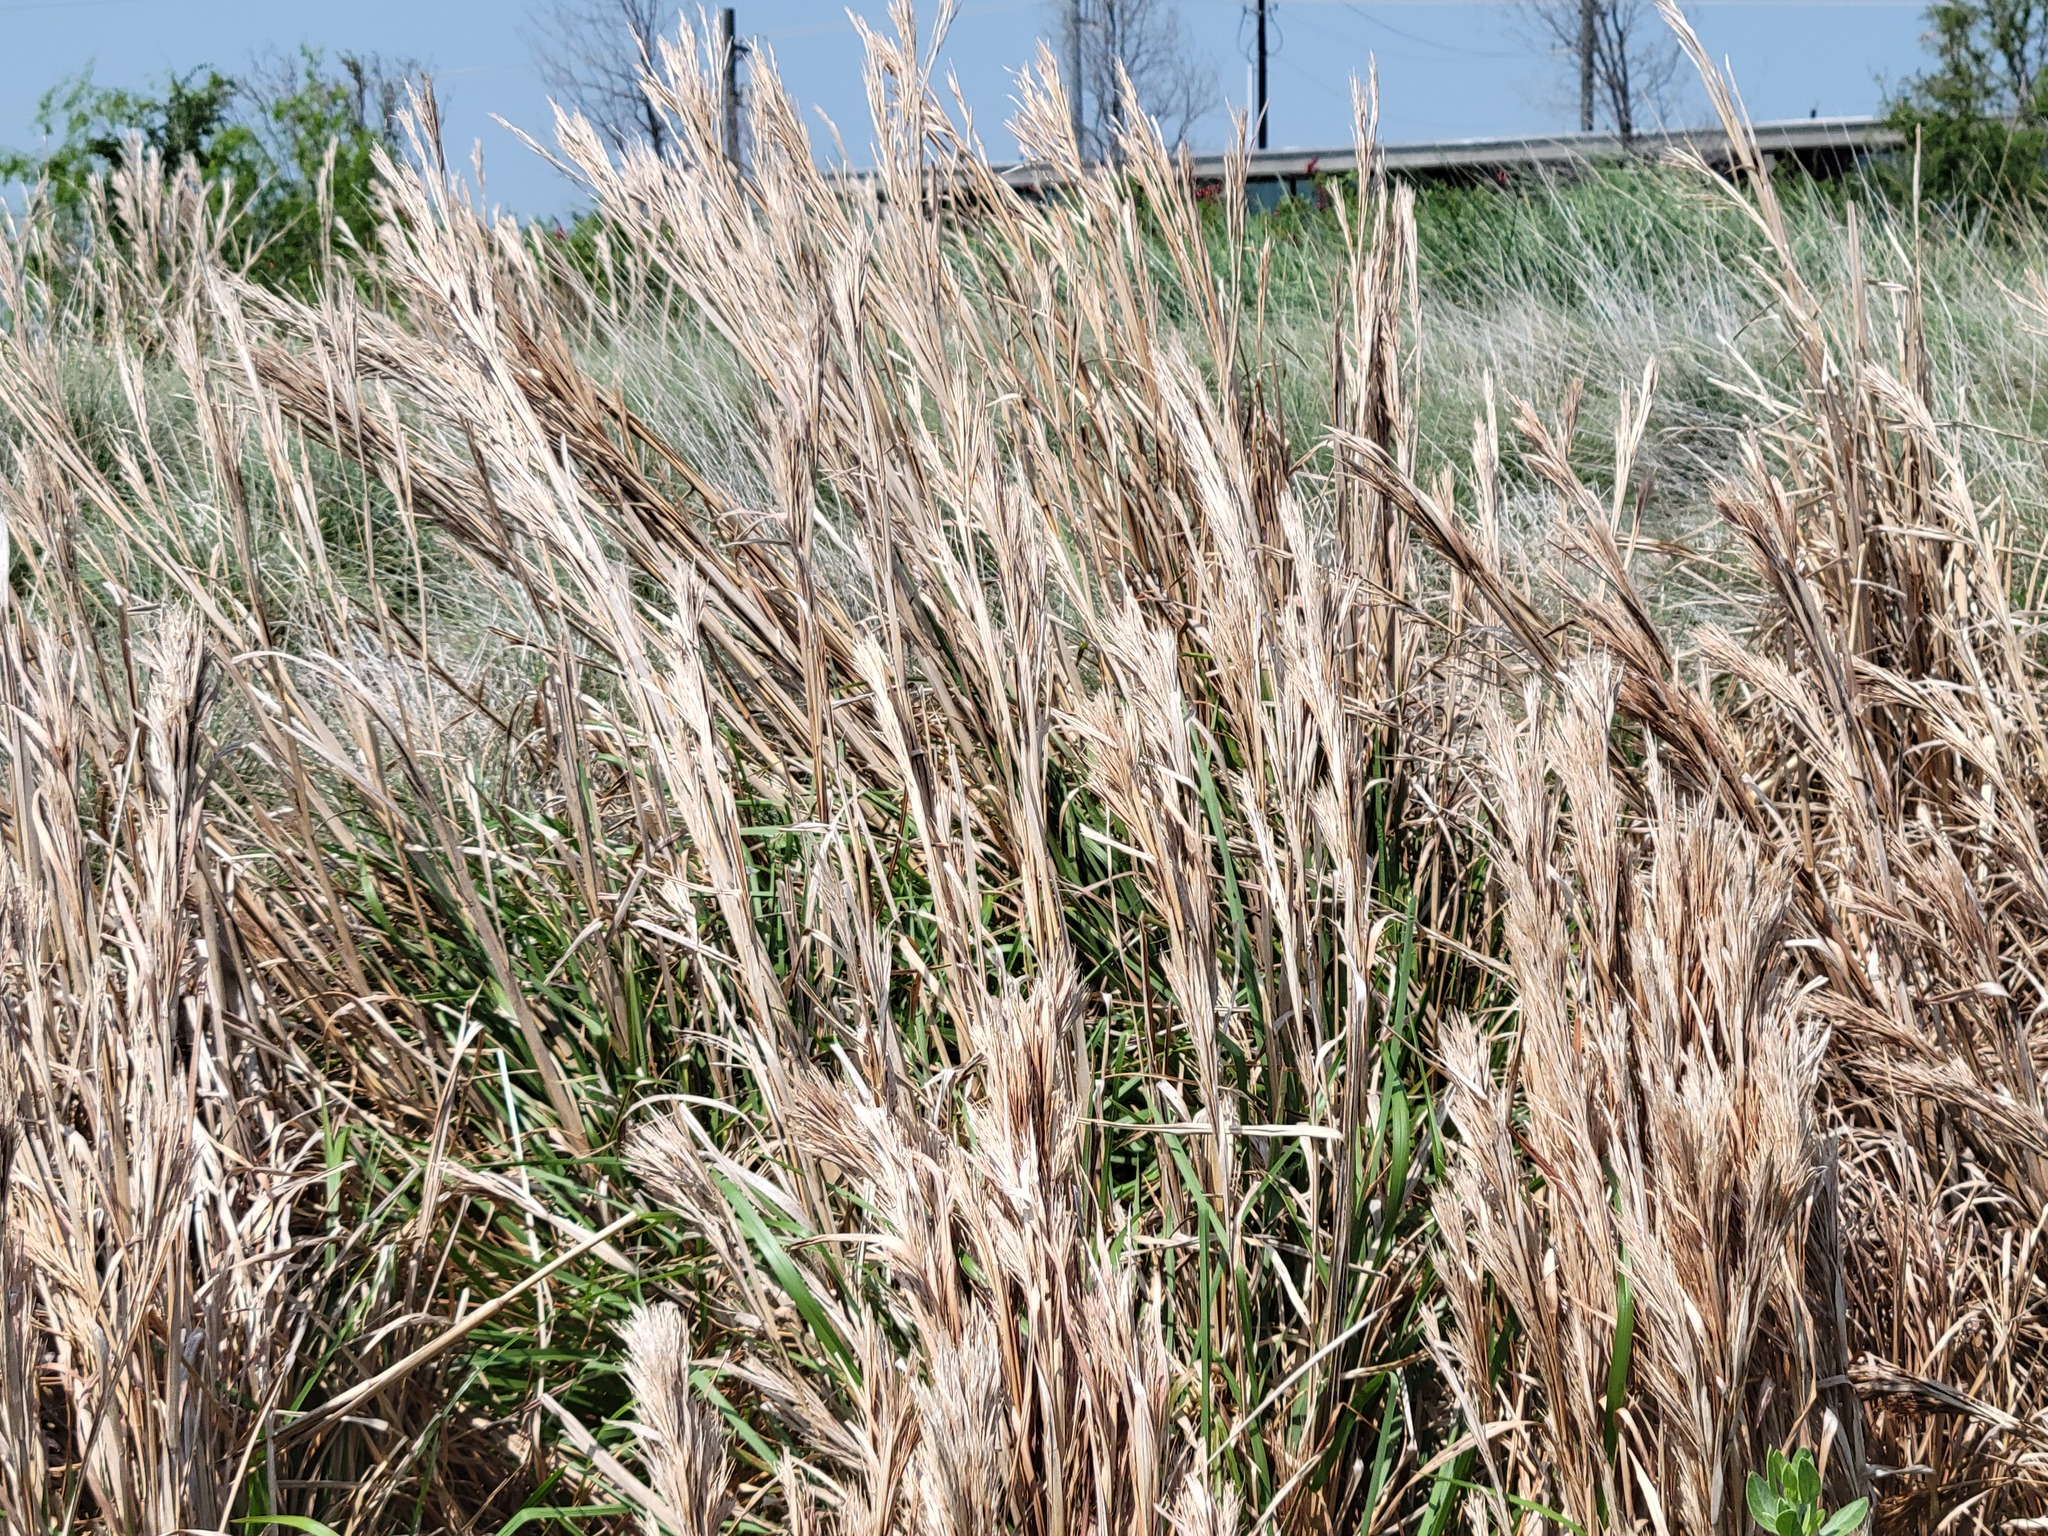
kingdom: Plantae
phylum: Tracheophyta
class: Liliopsida
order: Poales
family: Poaceae
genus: Andropogon
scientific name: Andropogon tenuispatheus
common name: Bushy bluestem
